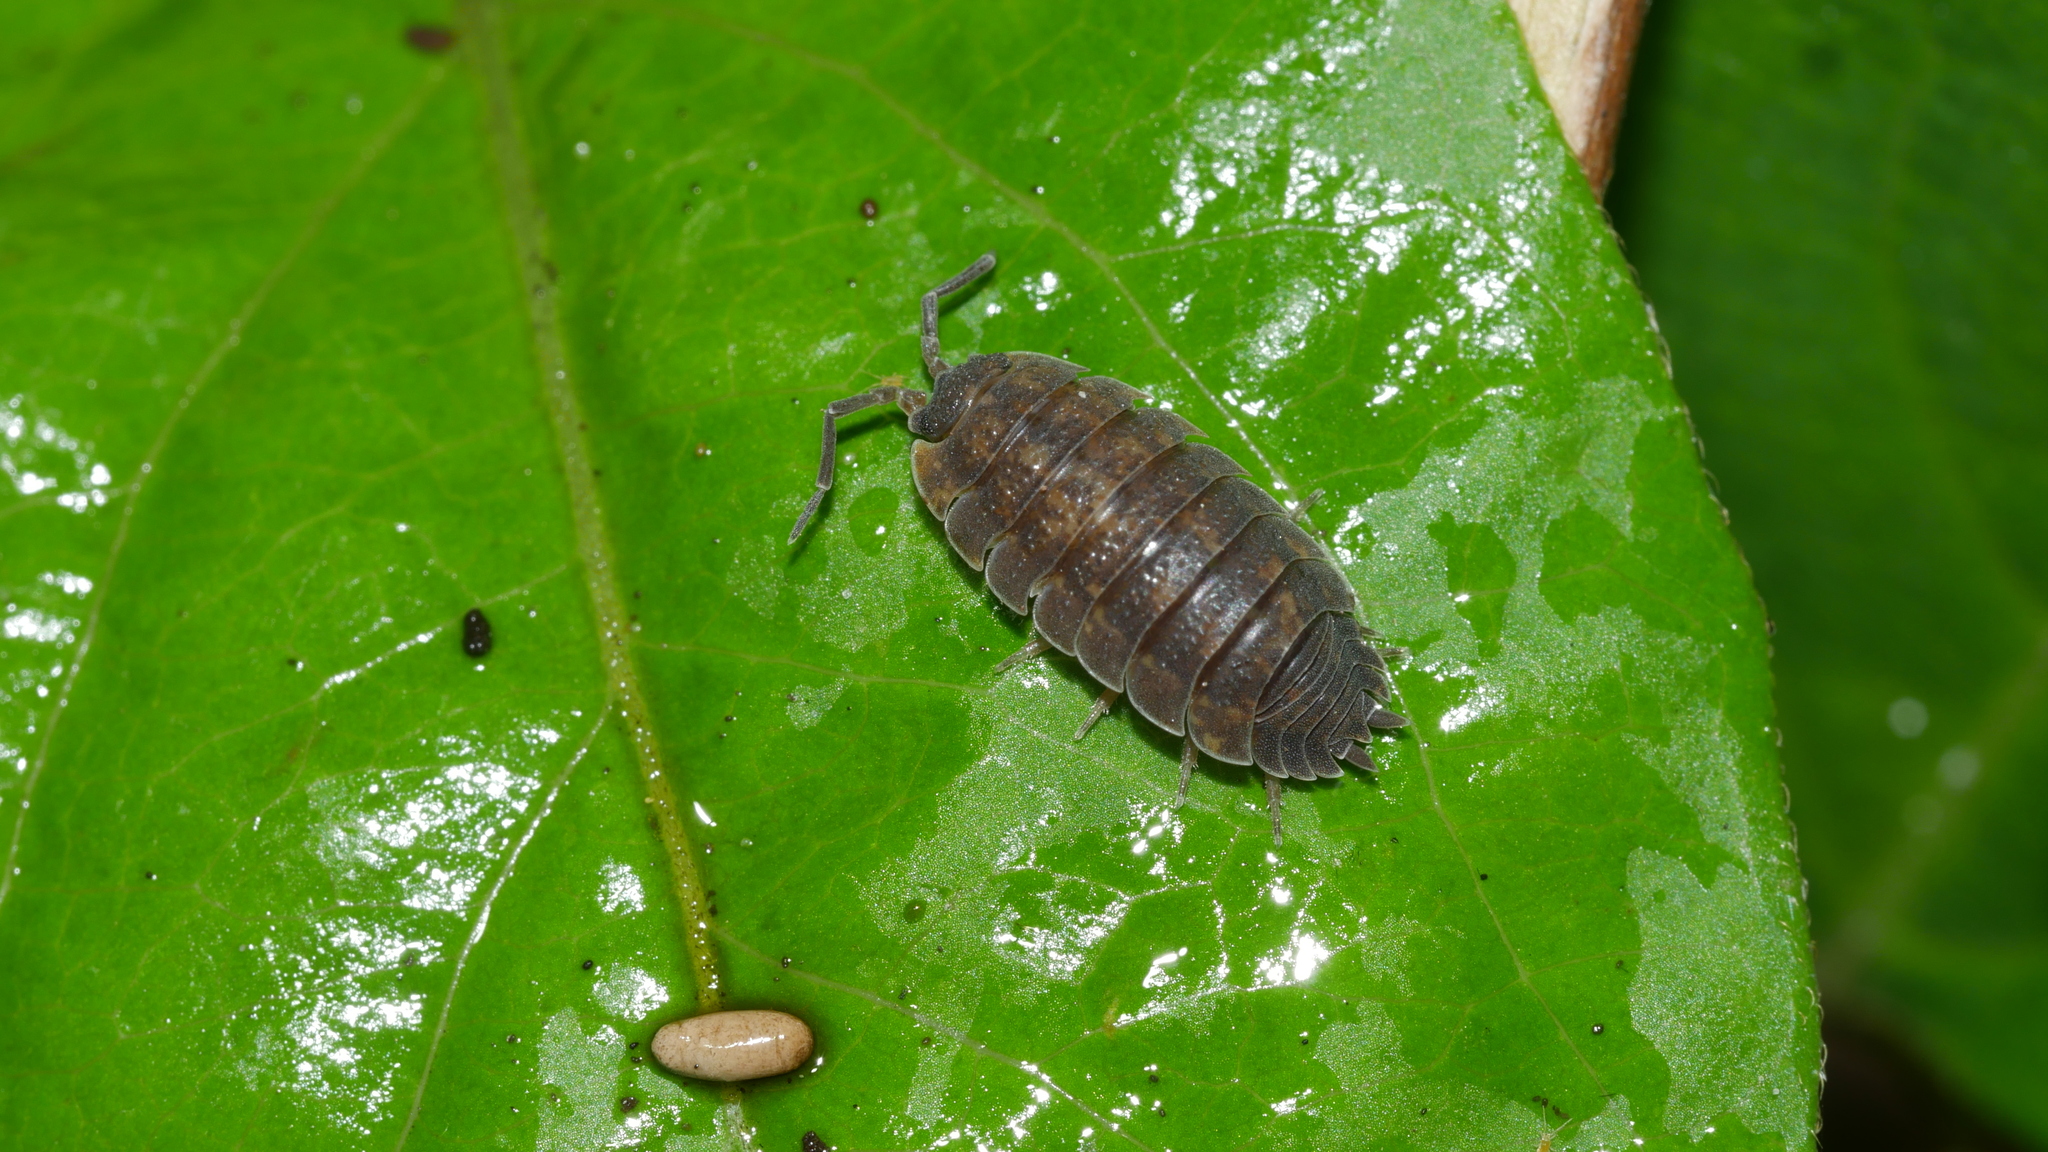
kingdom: Animalia
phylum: Arthropoda
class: Malacostraca
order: Isopoda
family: Porcellionidae
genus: Porcellio
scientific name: Porcellio scaber
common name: Common rough woodlouse
